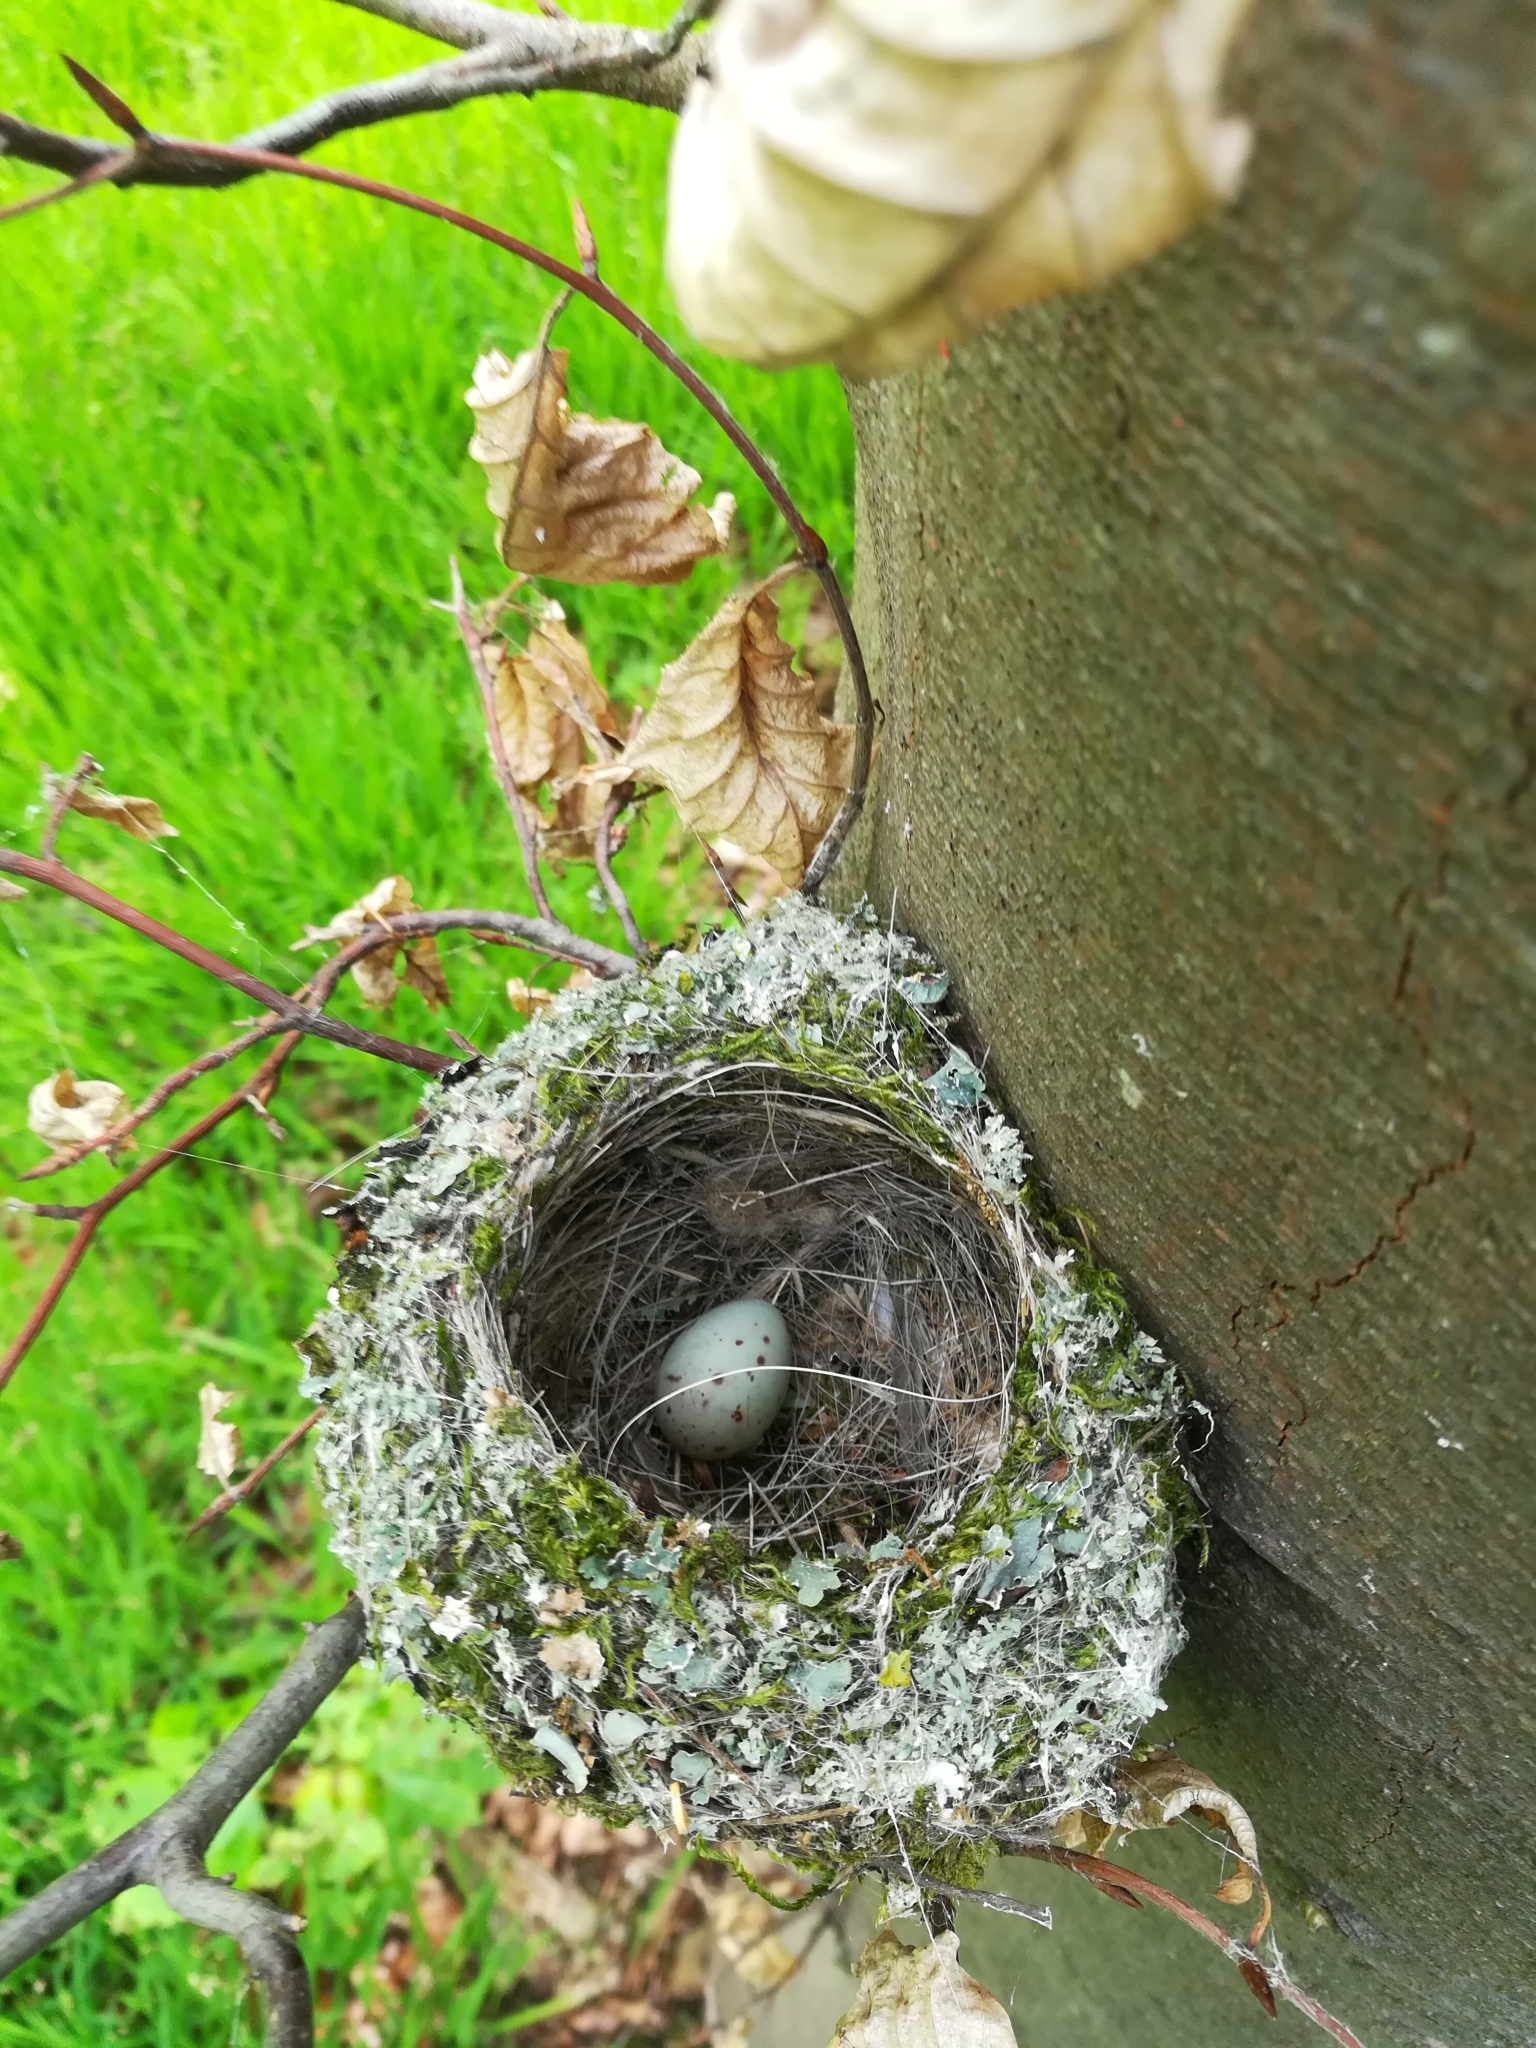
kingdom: Animalia
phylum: Chordata
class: Aves
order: Passeriformes
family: Fringillidae
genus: Fringilla
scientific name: Fringilla coelebs
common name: Common chaffinch
